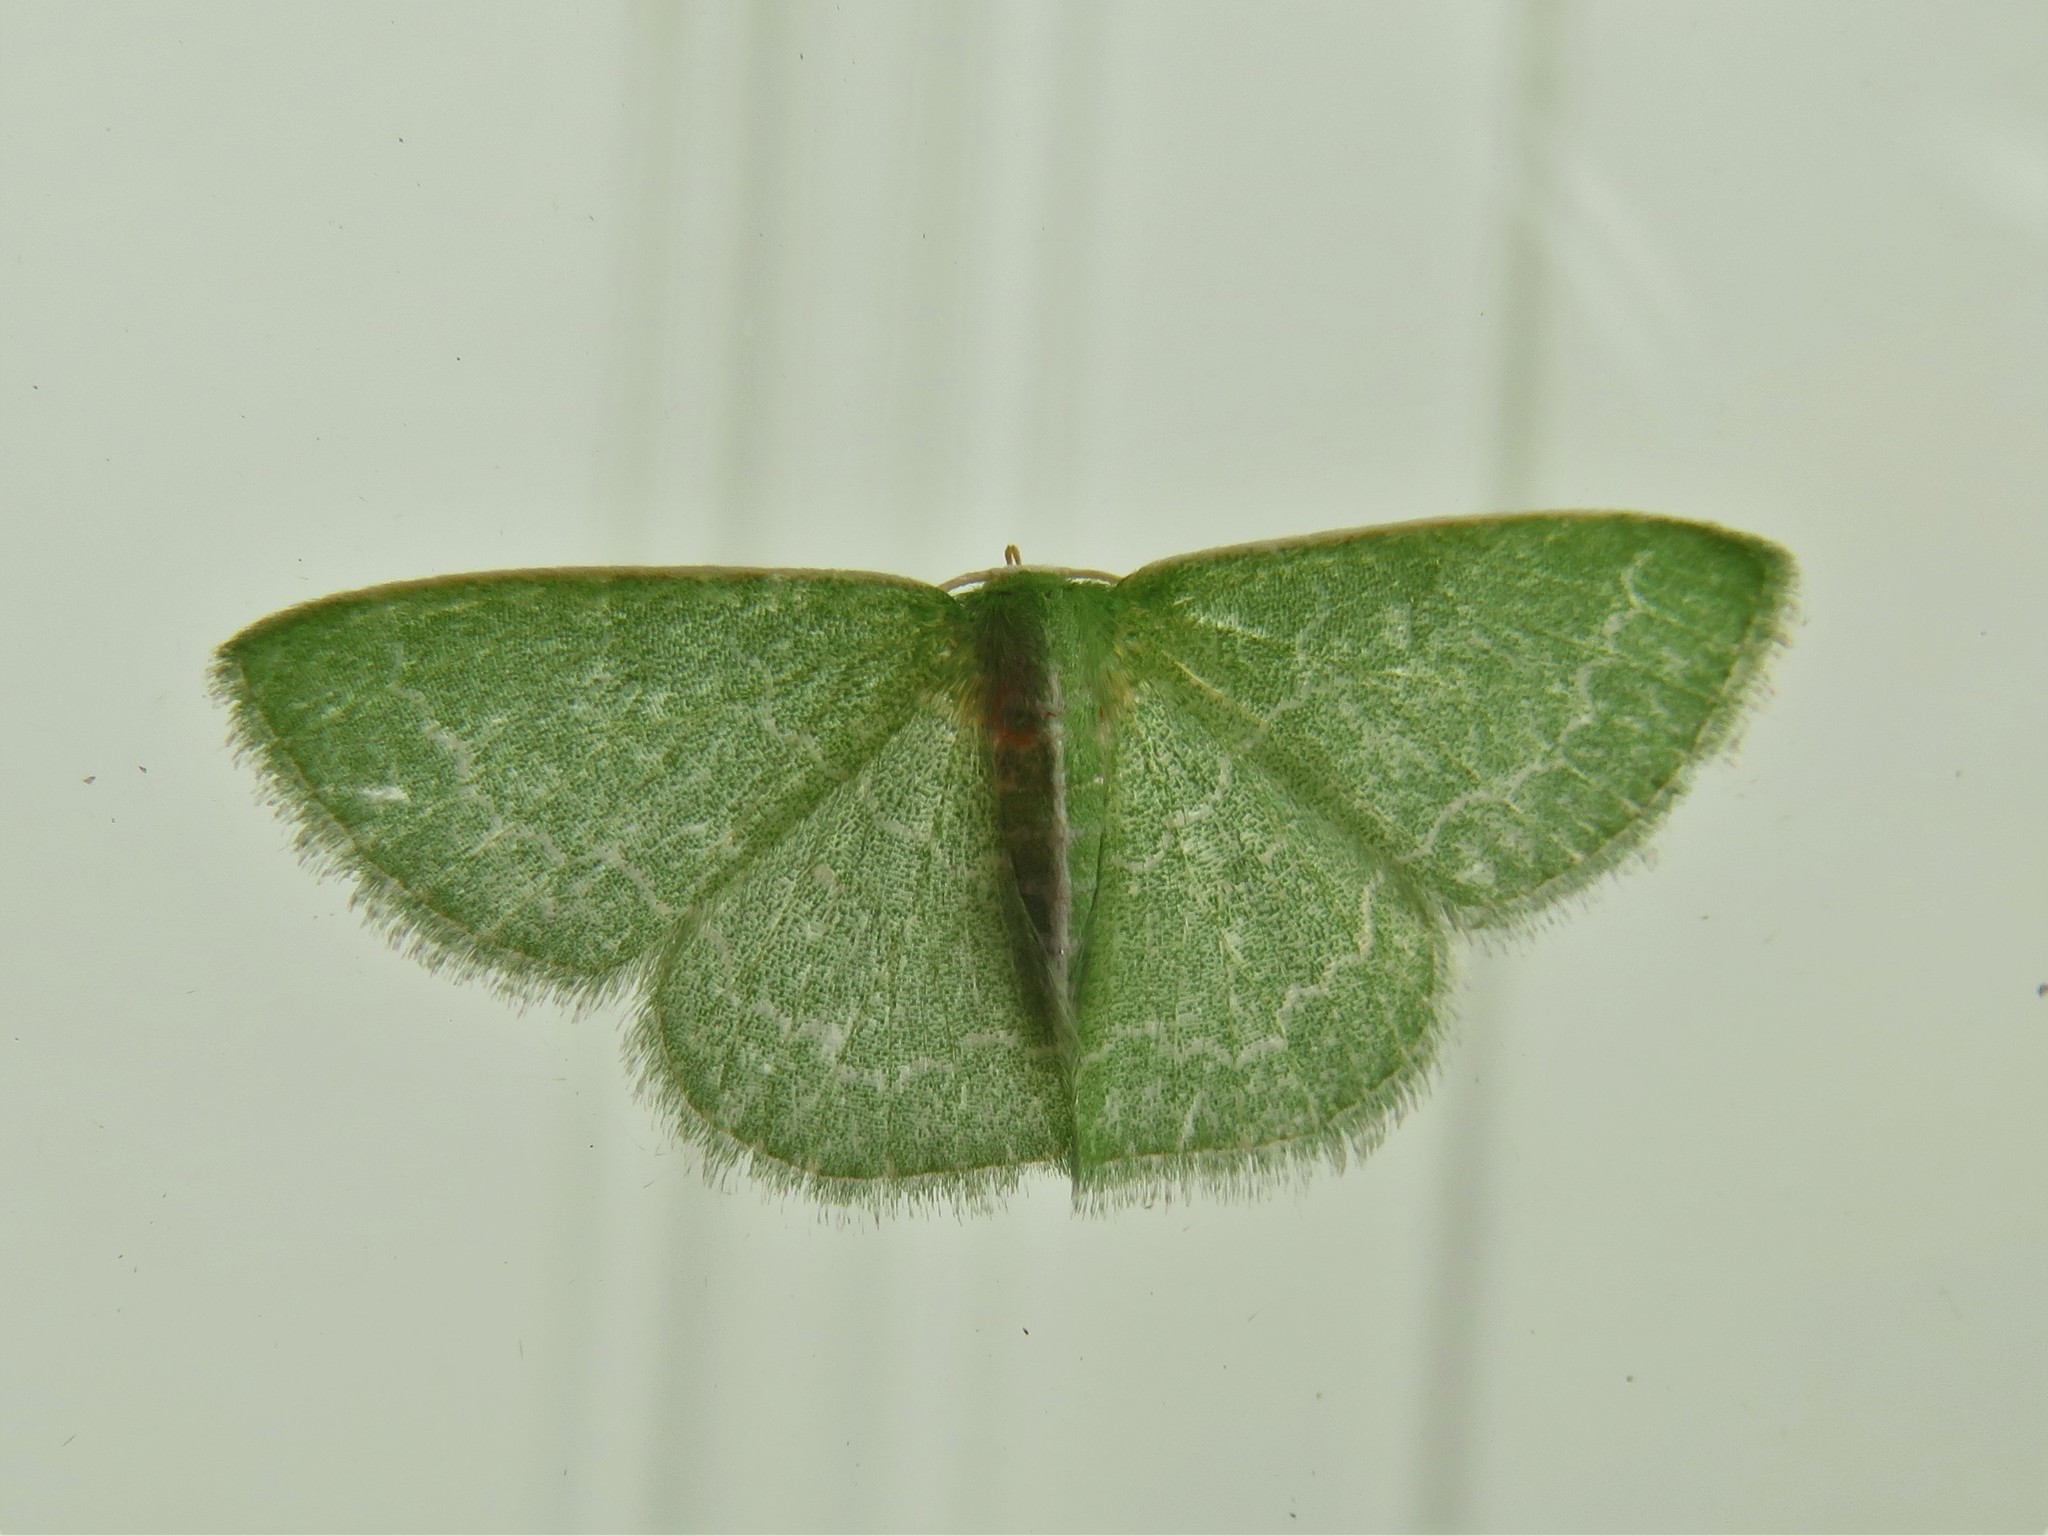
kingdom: Animalia
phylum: Arthropoda
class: Insecta
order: Lepidoptera
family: Geometridae
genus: Synchlora
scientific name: Synchlora frondaria
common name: Southern emerald
